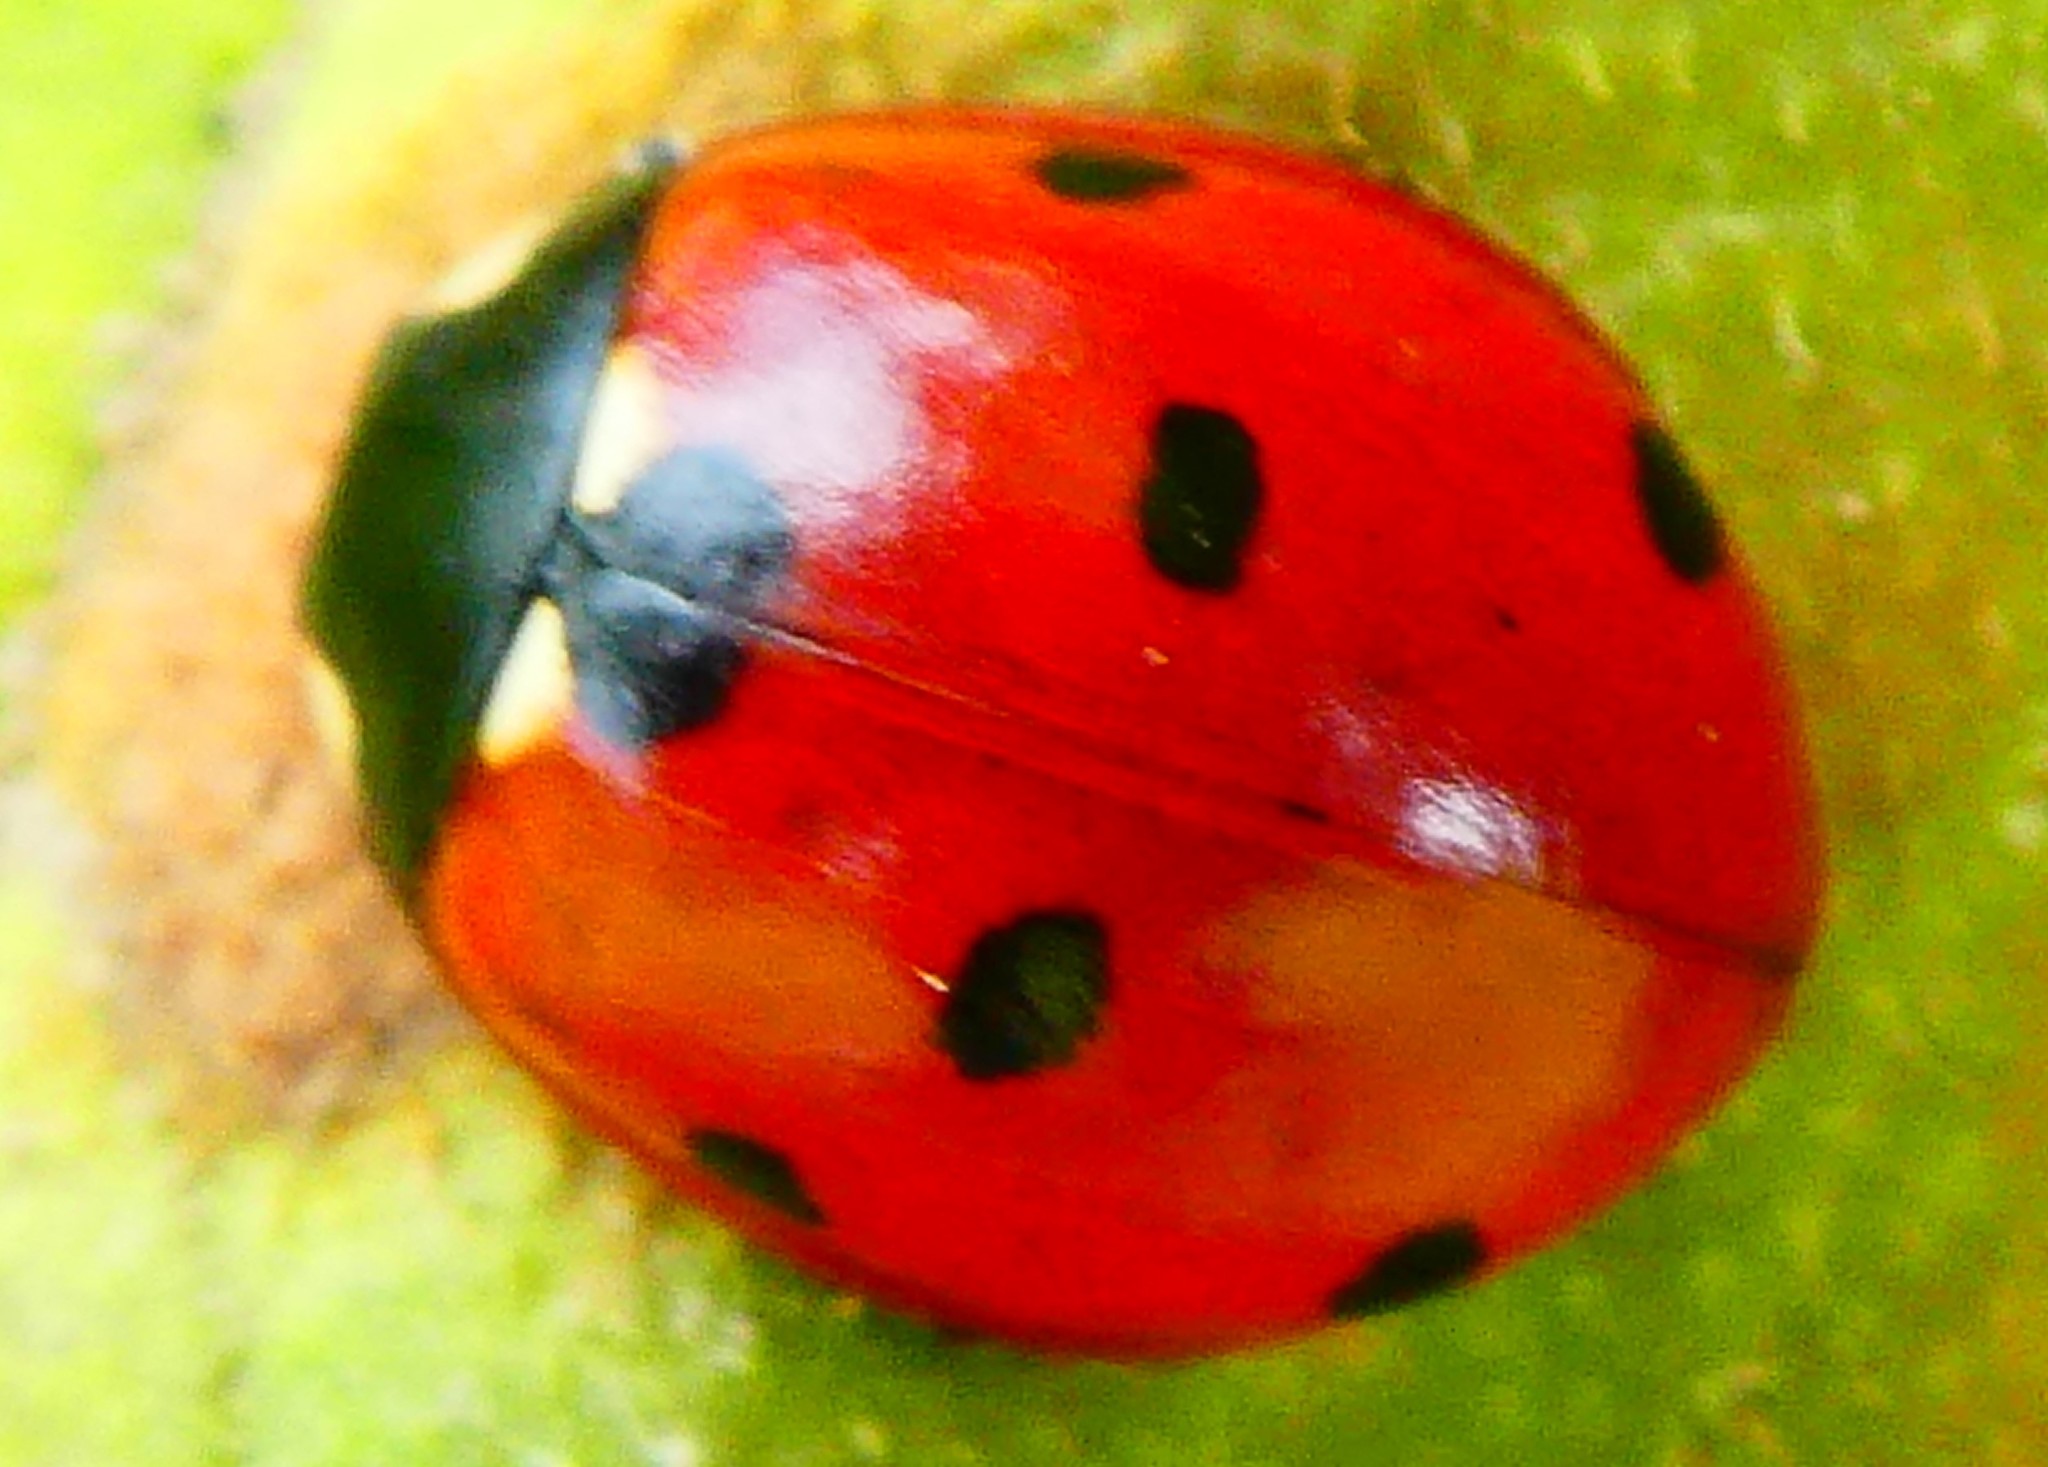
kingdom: Animalia
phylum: Arthropoda
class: Insecta
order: Coleoptera
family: Coccinellidae
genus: Coccinella
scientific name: Coccinella septempunctata
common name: Sevenspotted lady beetle
